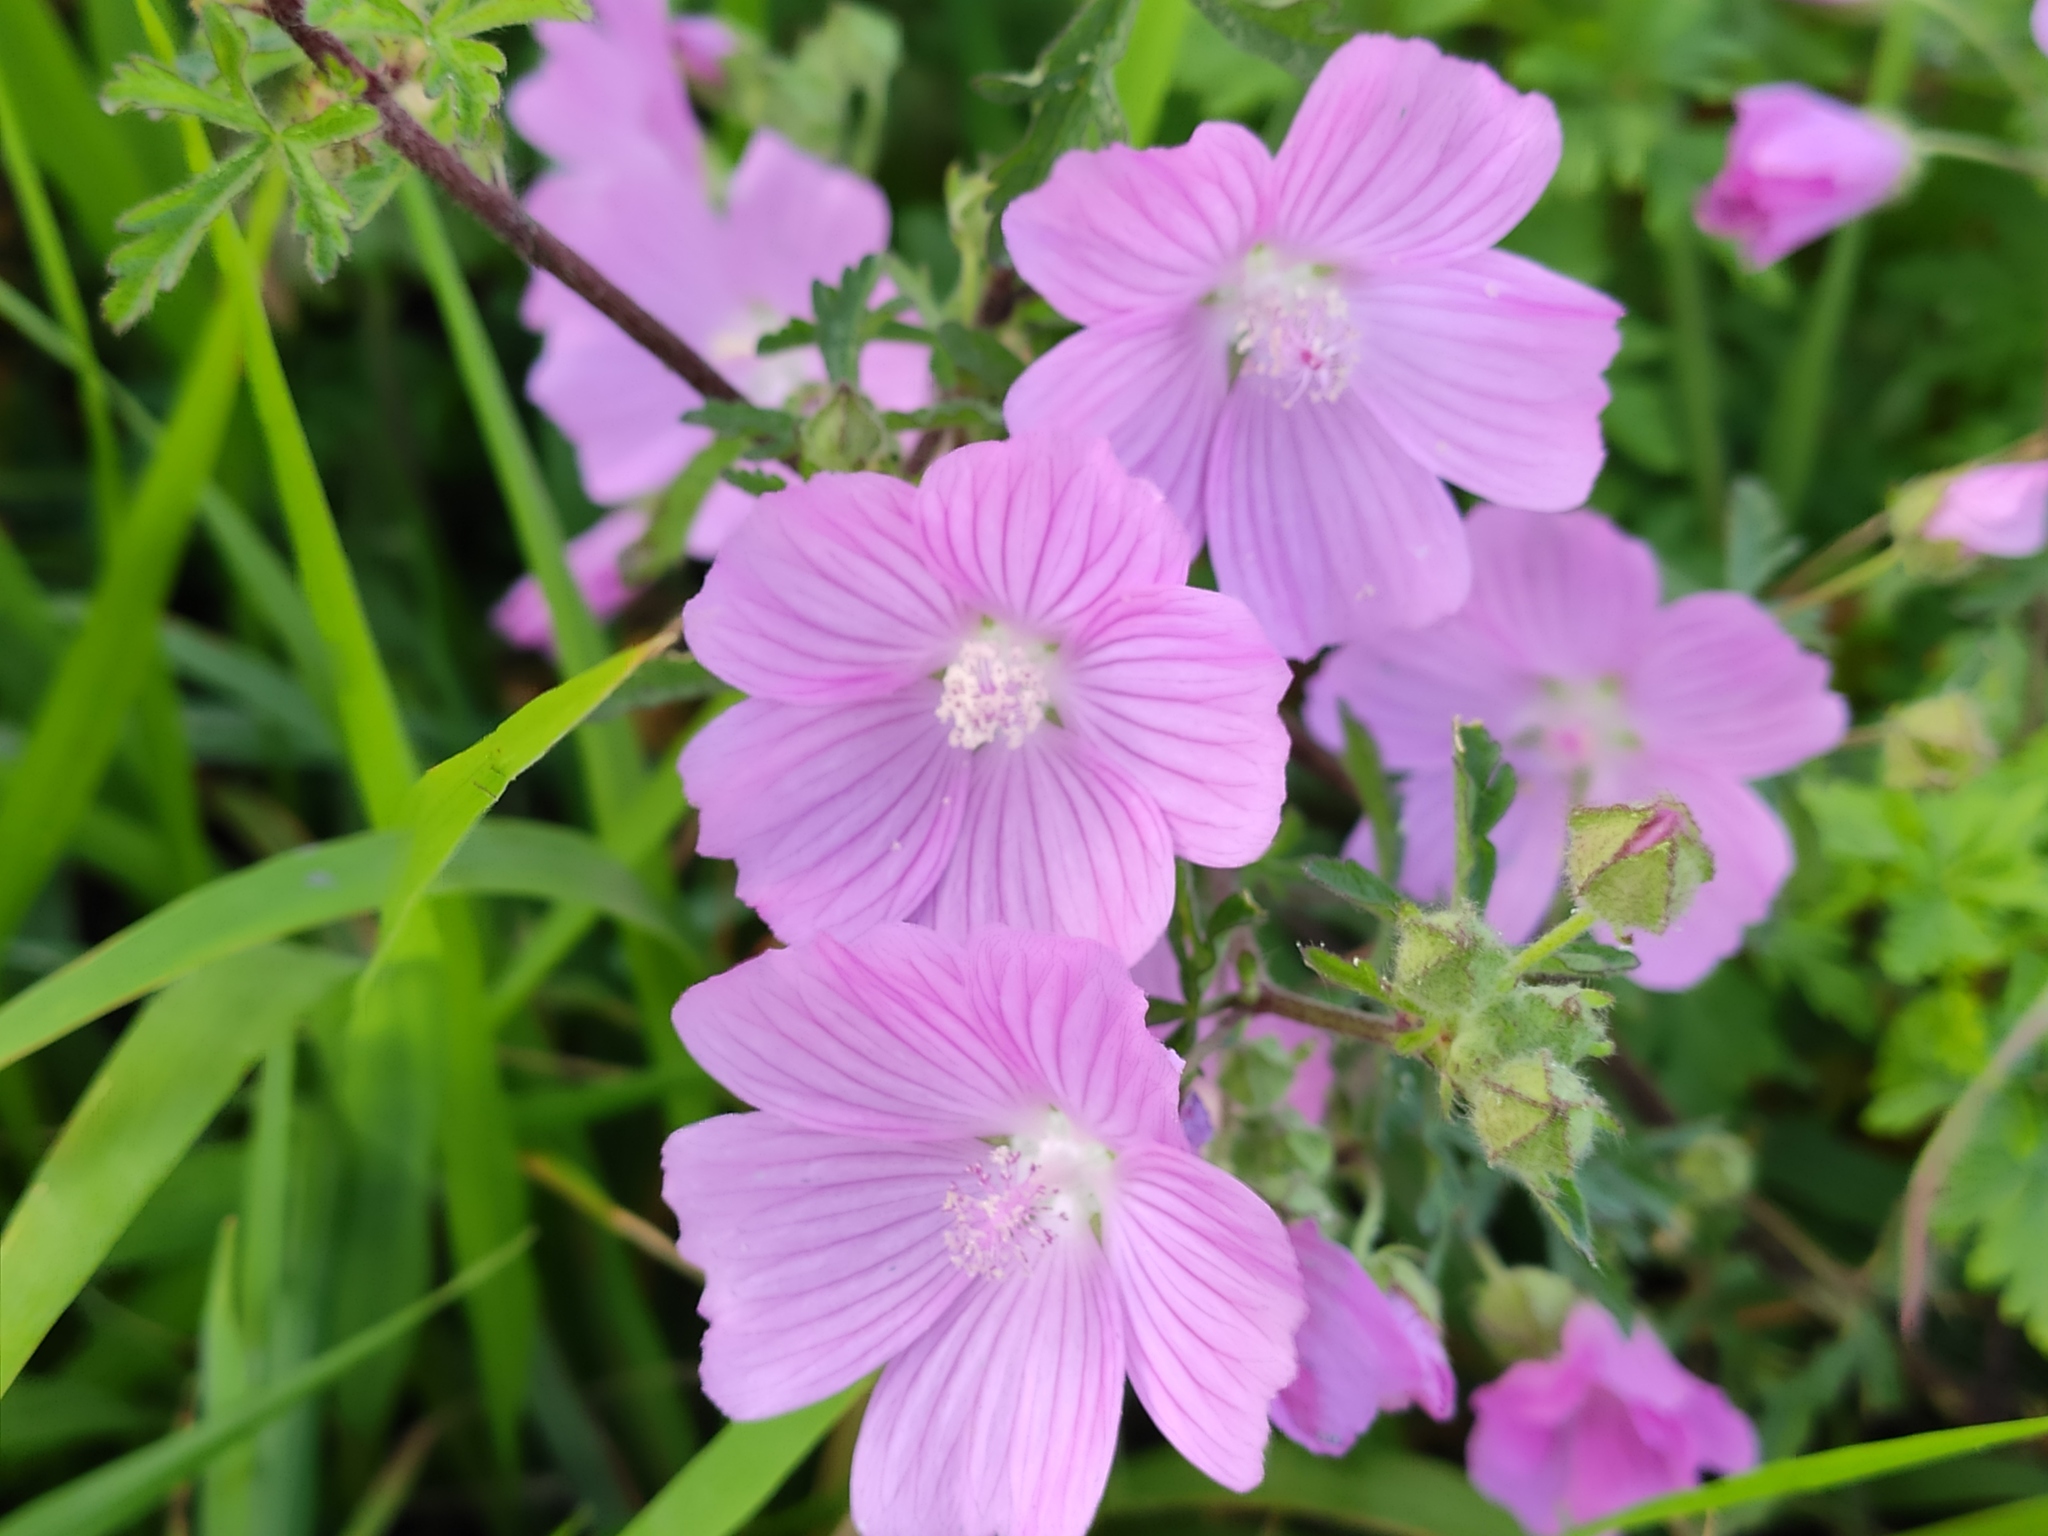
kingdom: Plantae
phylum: Tracheophyta
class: Magnoliopsida
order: Malvales
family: Malvaceae
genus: Malva
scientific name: Malva moschata
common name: Musk mallow
